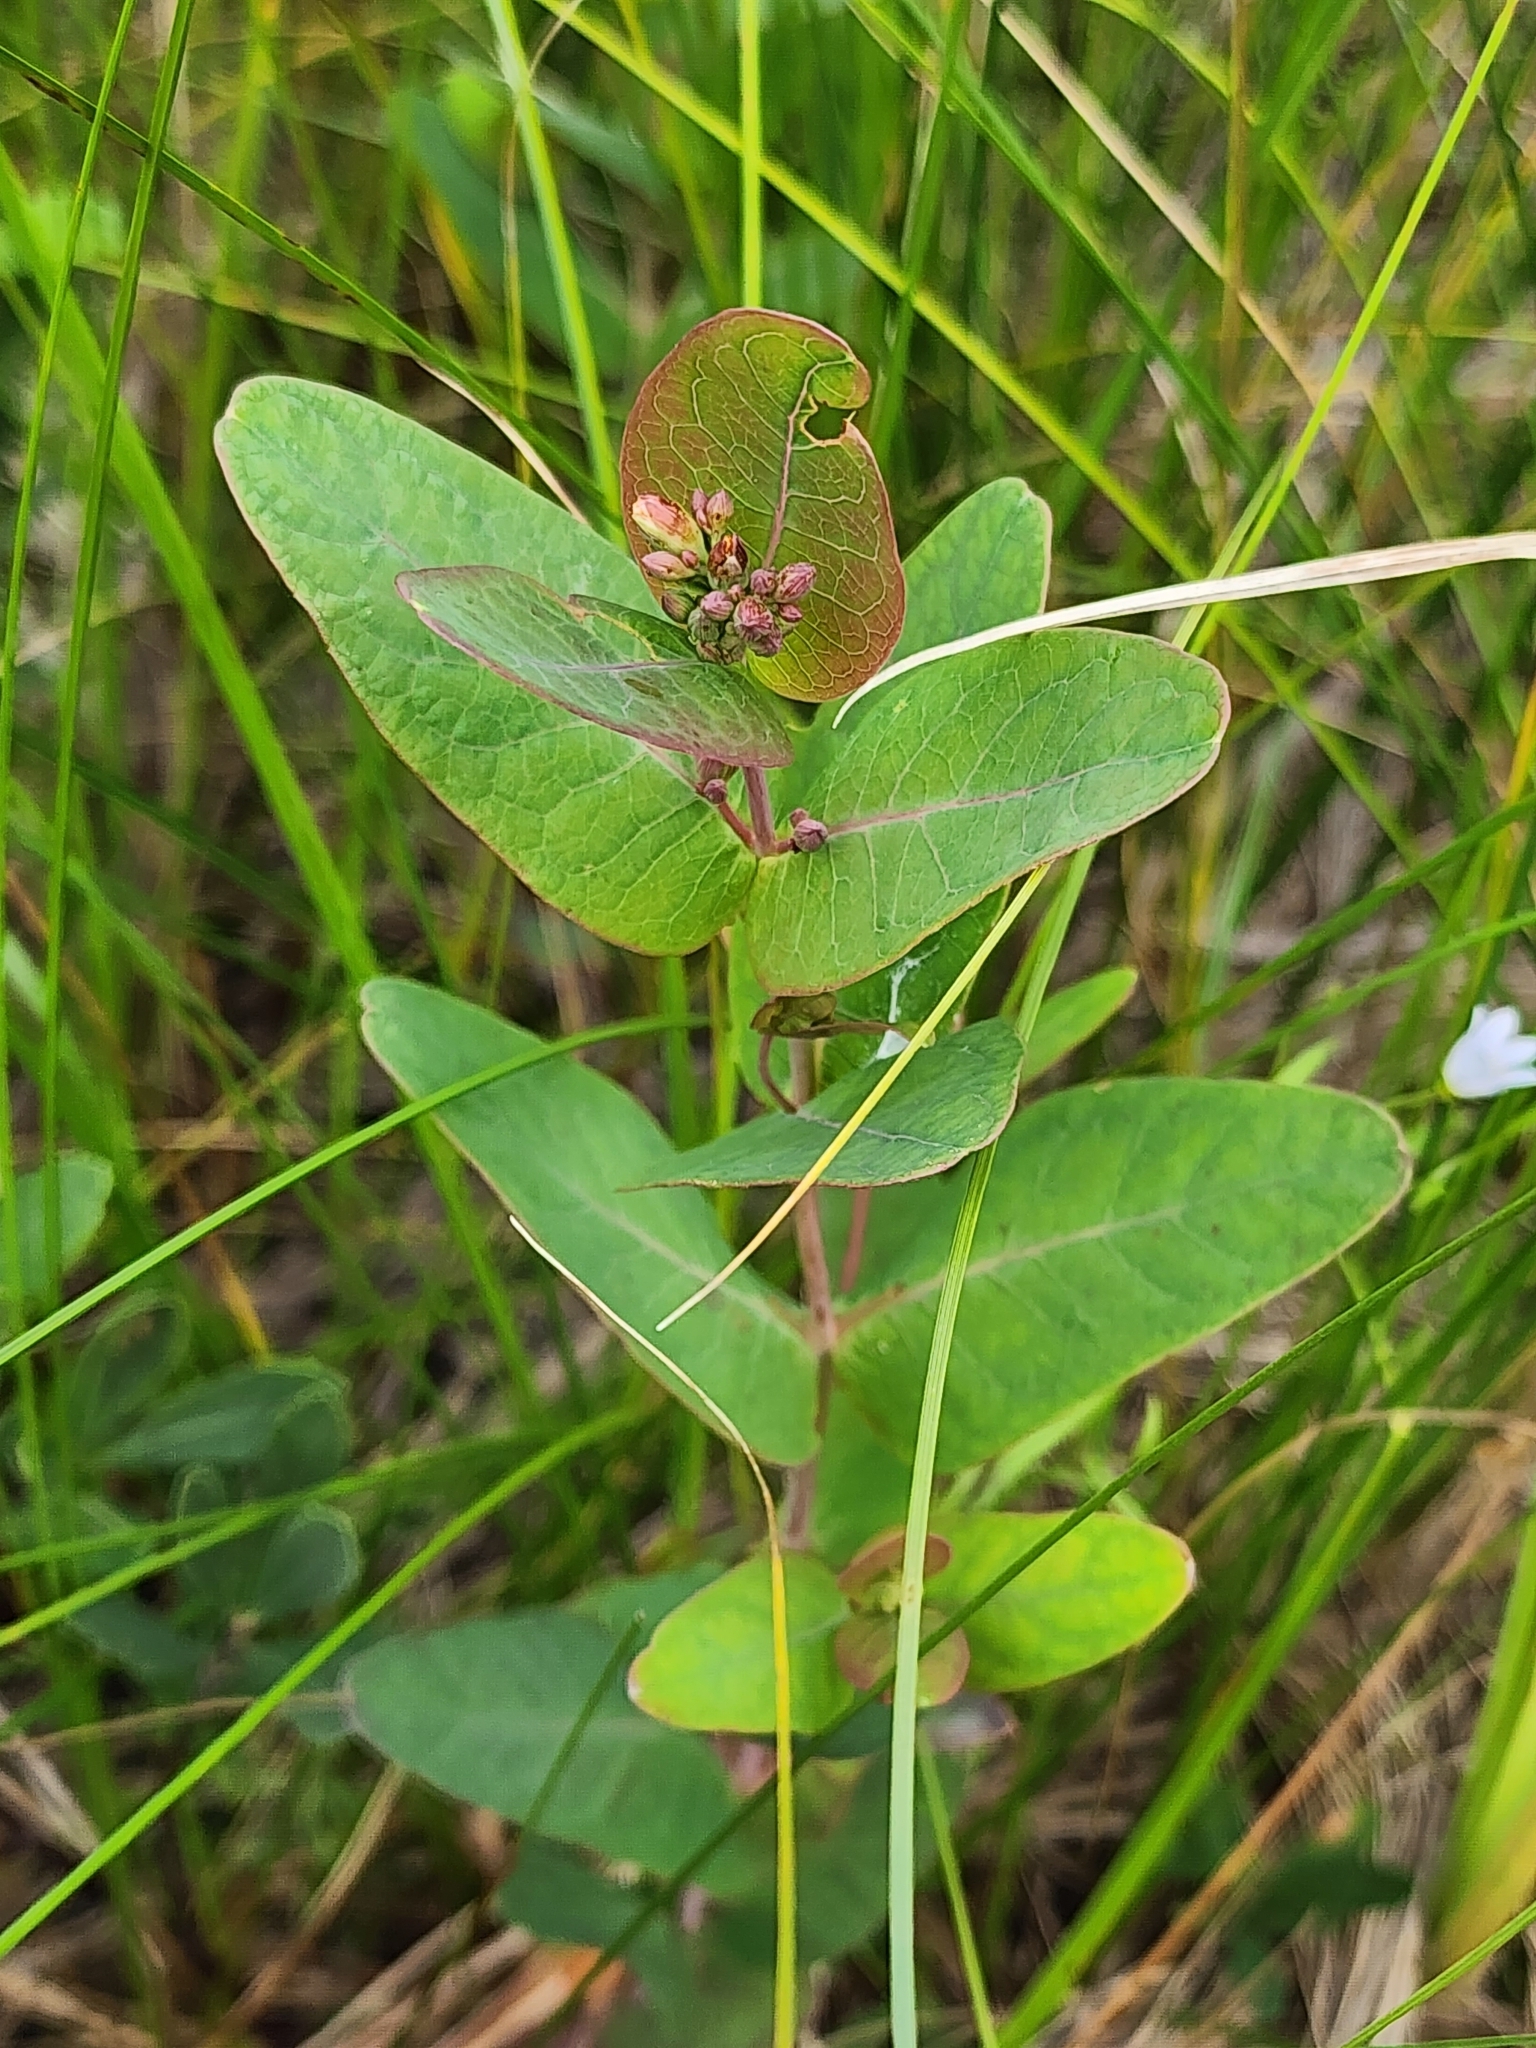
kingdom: Plantae
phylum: Tracheophyta
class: Magnoliopsida
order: Malpighiales
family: Hypericaceae
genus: Triadenum
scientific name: Triadenum fraseri
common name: Fraser's marsh st. johnswort
